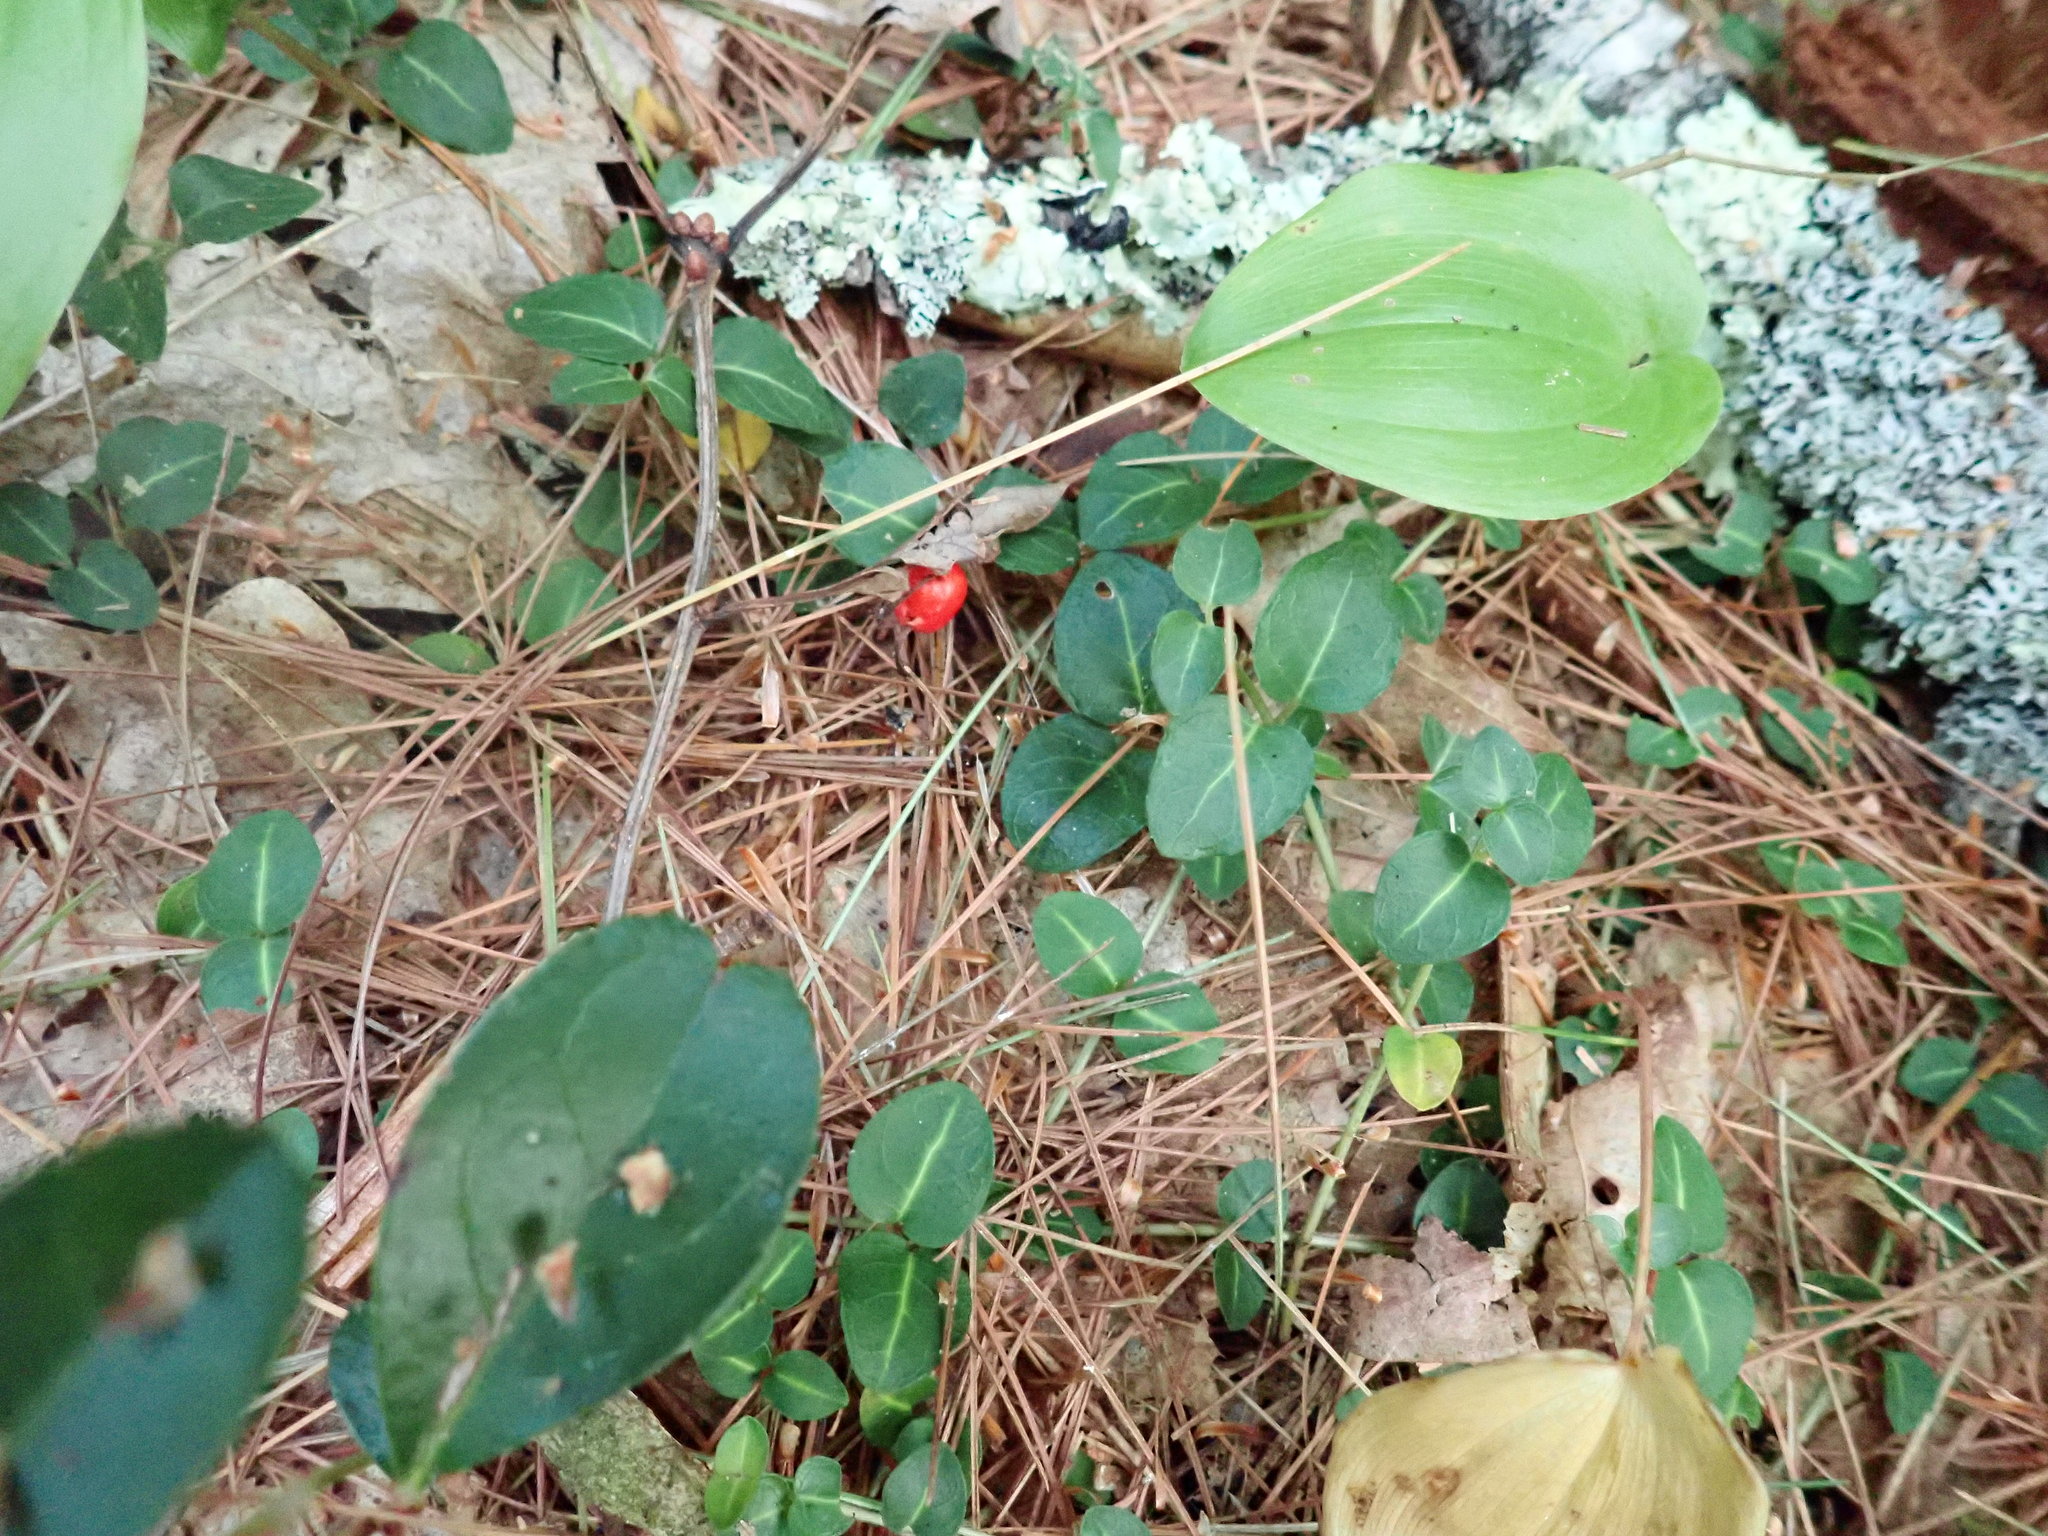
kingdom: Plantae
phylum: Tracheophyta
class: Magnoliopsida
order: Gentianales
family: Rubiaceae
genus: Mitchella
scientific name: Mitchella repens
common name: Partridge-berry
